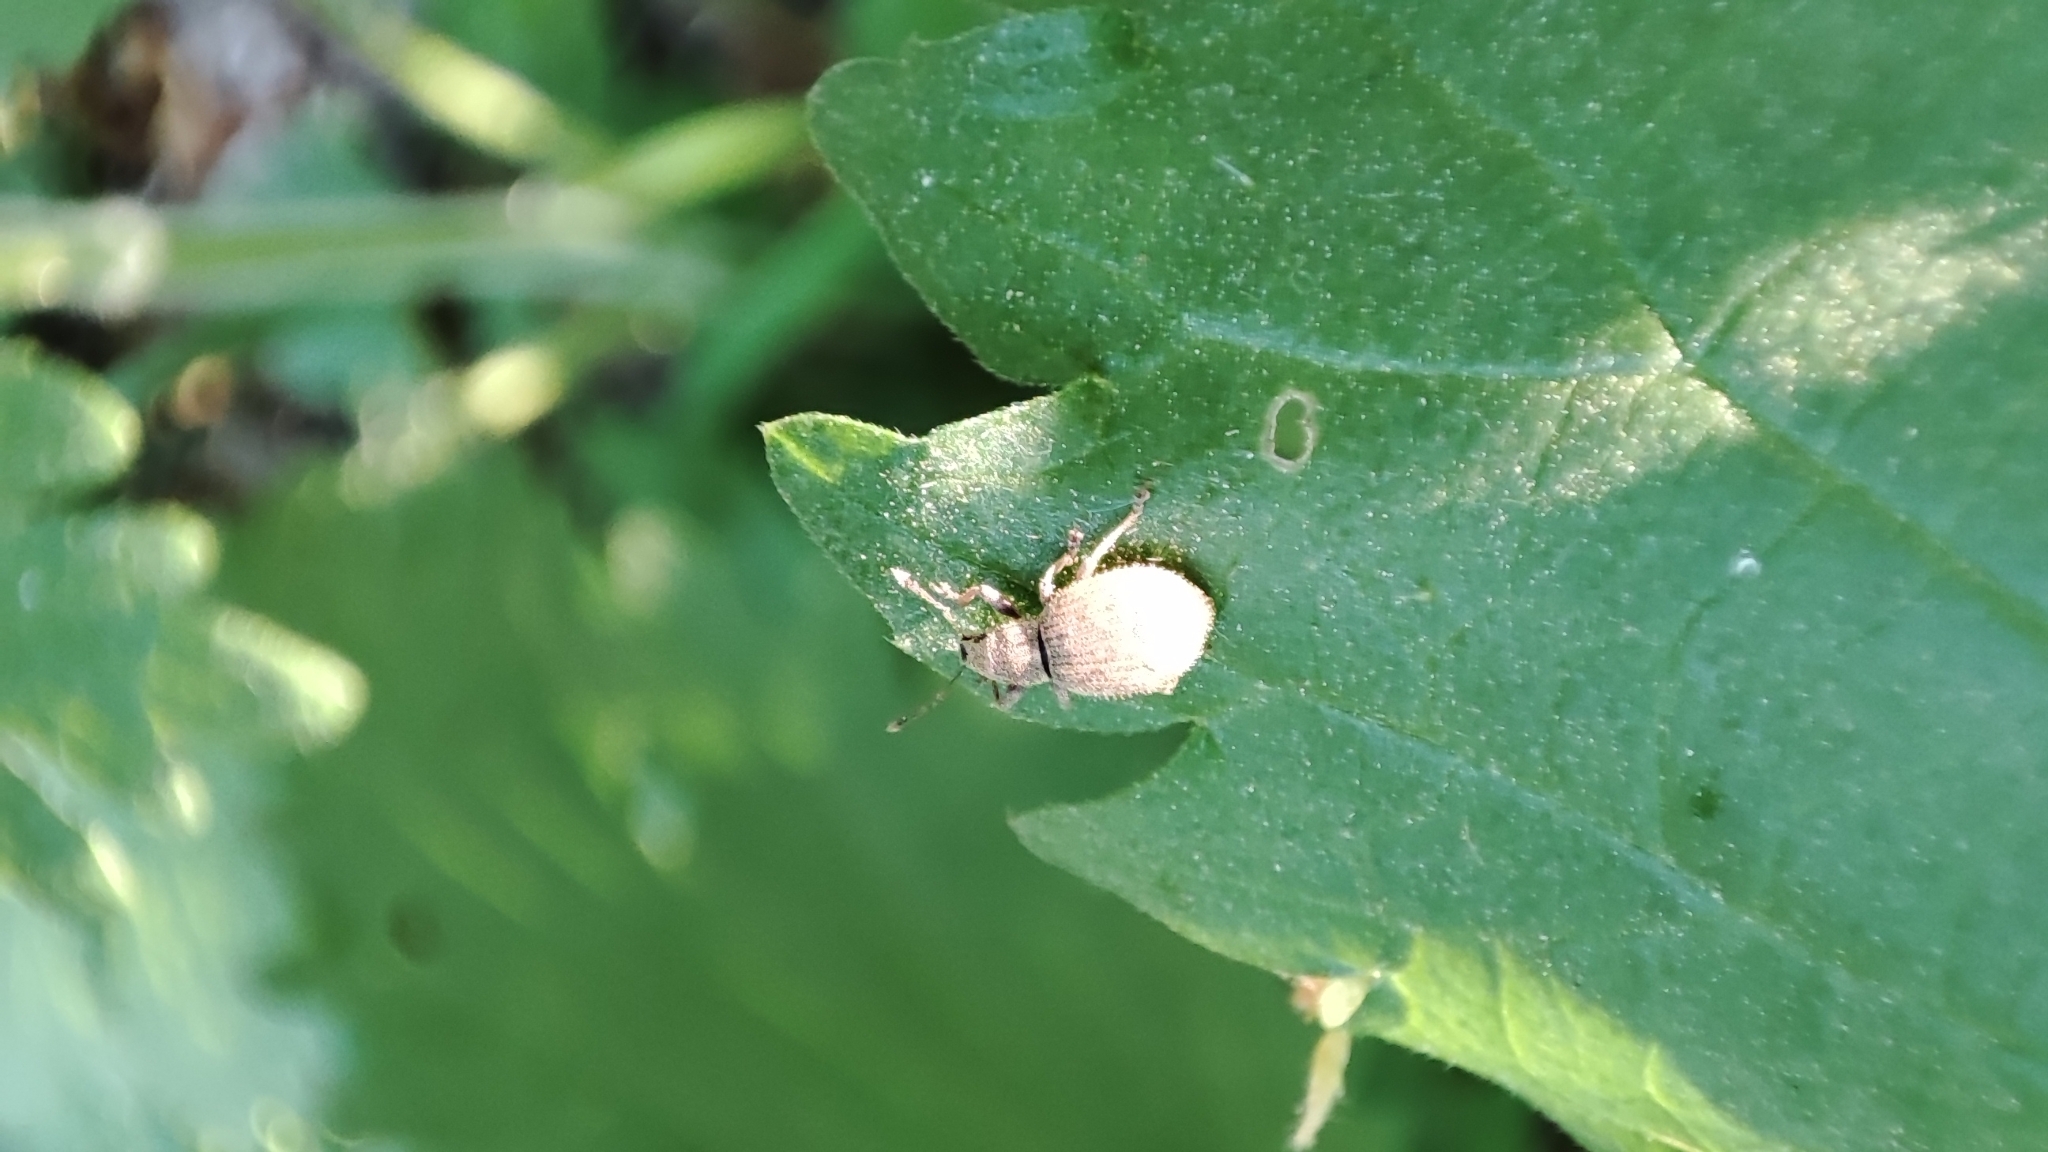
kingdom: Animalia
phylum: Arthropoda
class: Insecta
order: Coleoptera
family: Curculionidae
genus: Sciaphilus
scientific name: Sciaphilus asperatus
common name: Weevil
